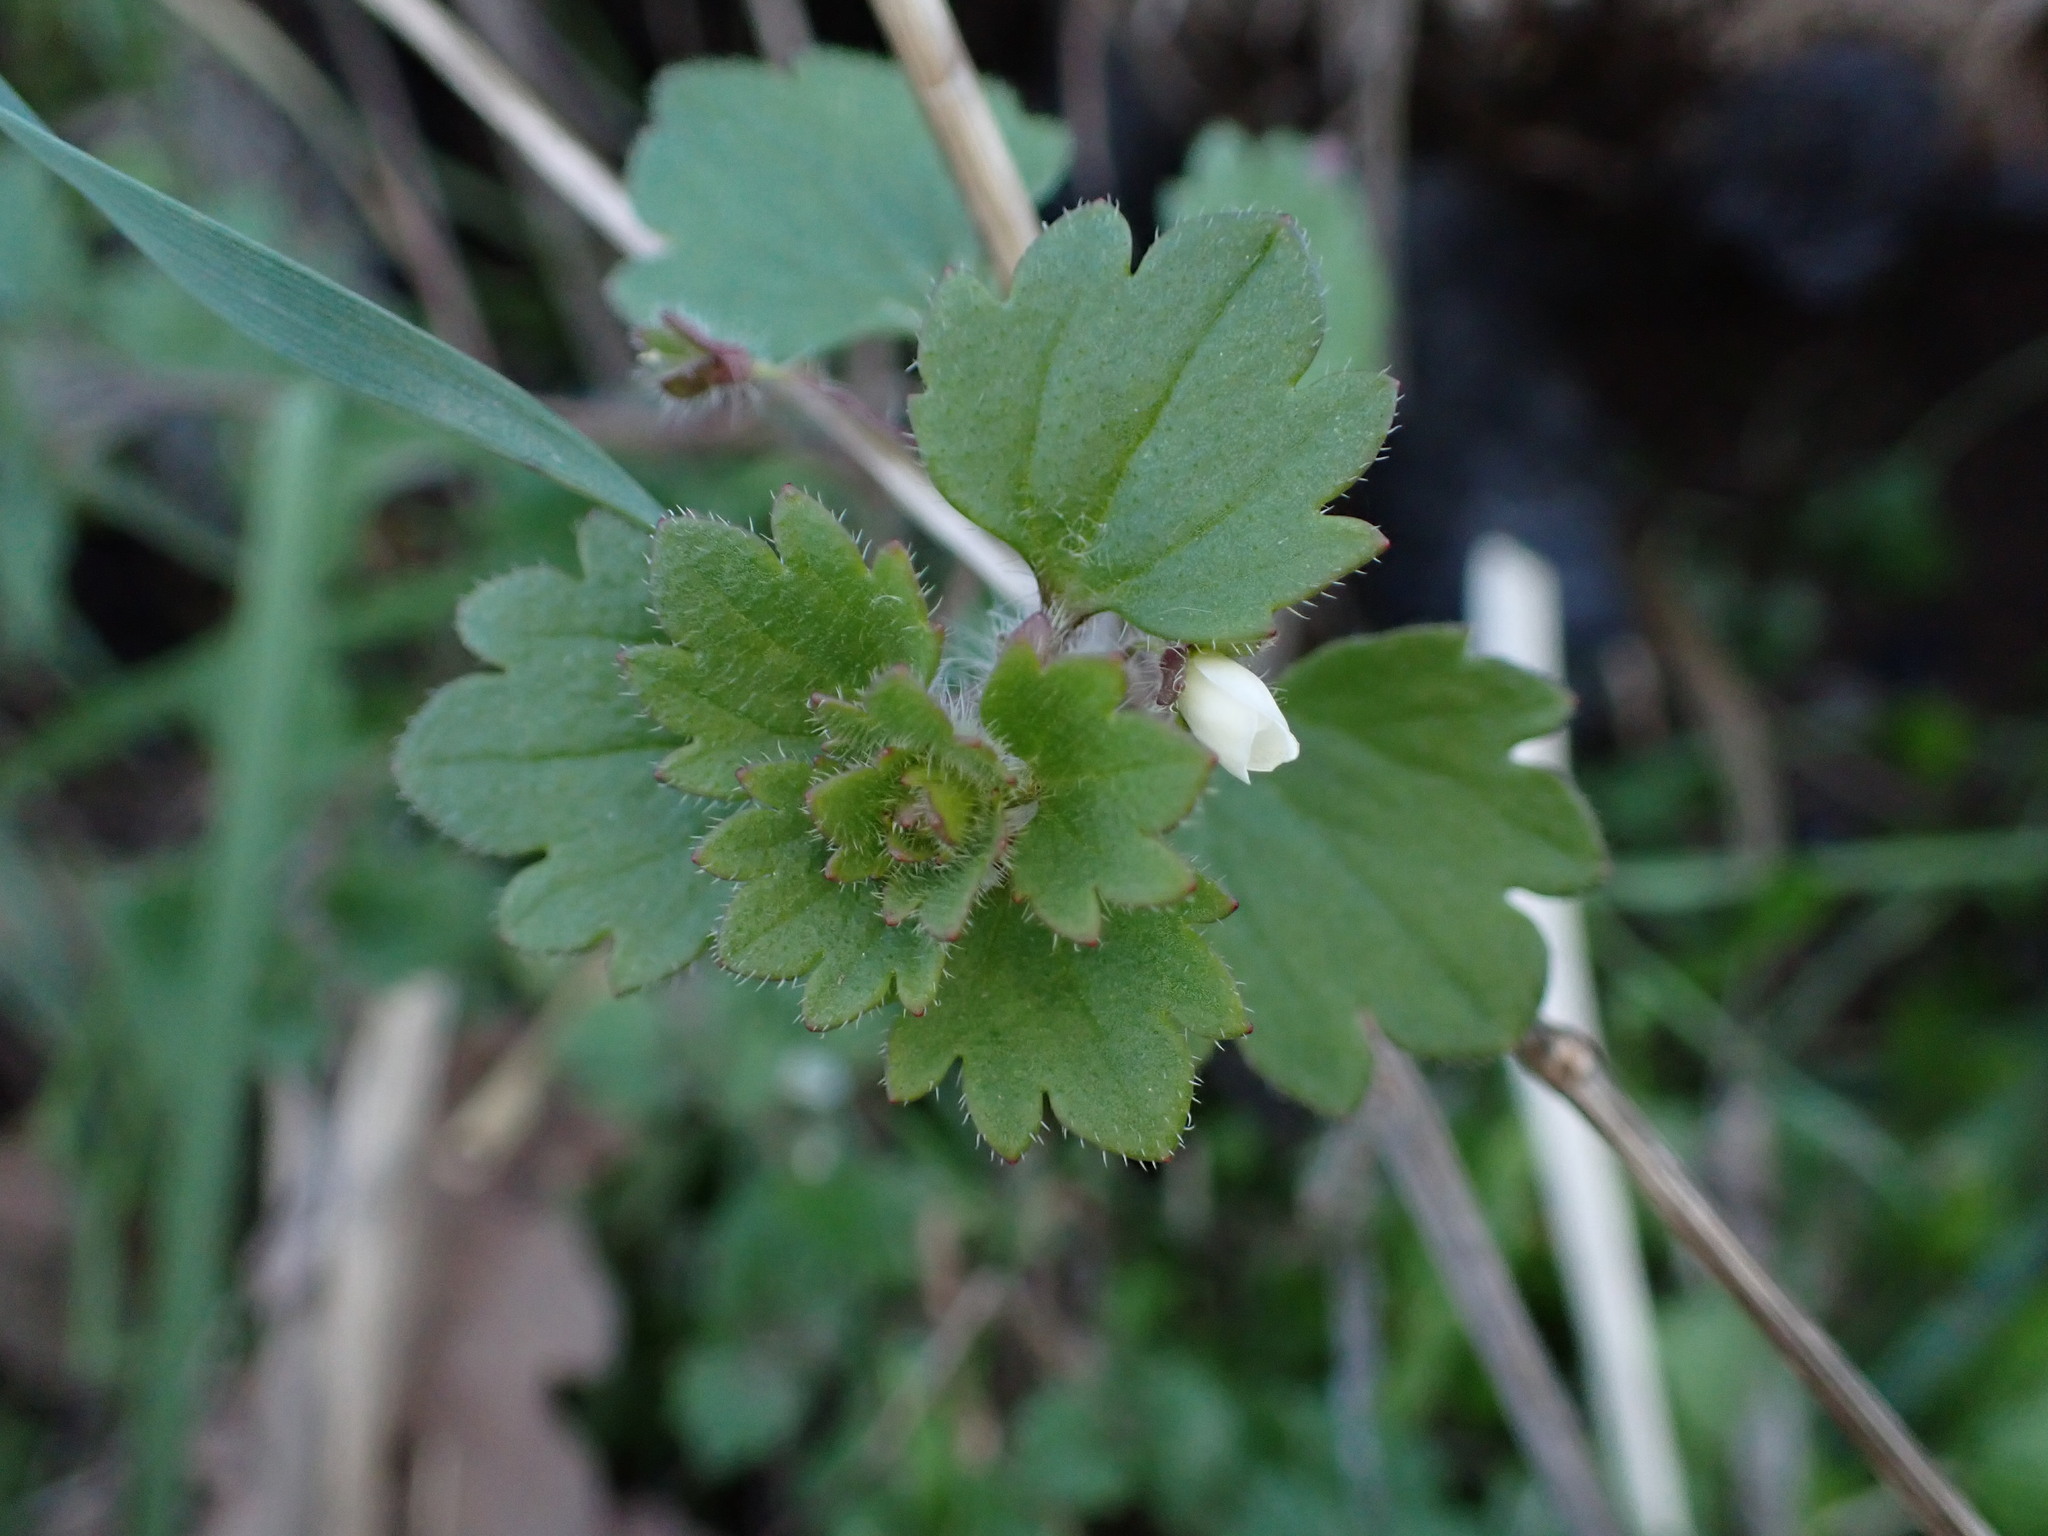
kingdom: Plantae
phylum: Tracheophyta
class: Magnoliopsida
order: Lamiales
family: Plantaginaceae
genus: Veronica
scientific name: Veronica cymbalaria
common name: Pale speedwell
